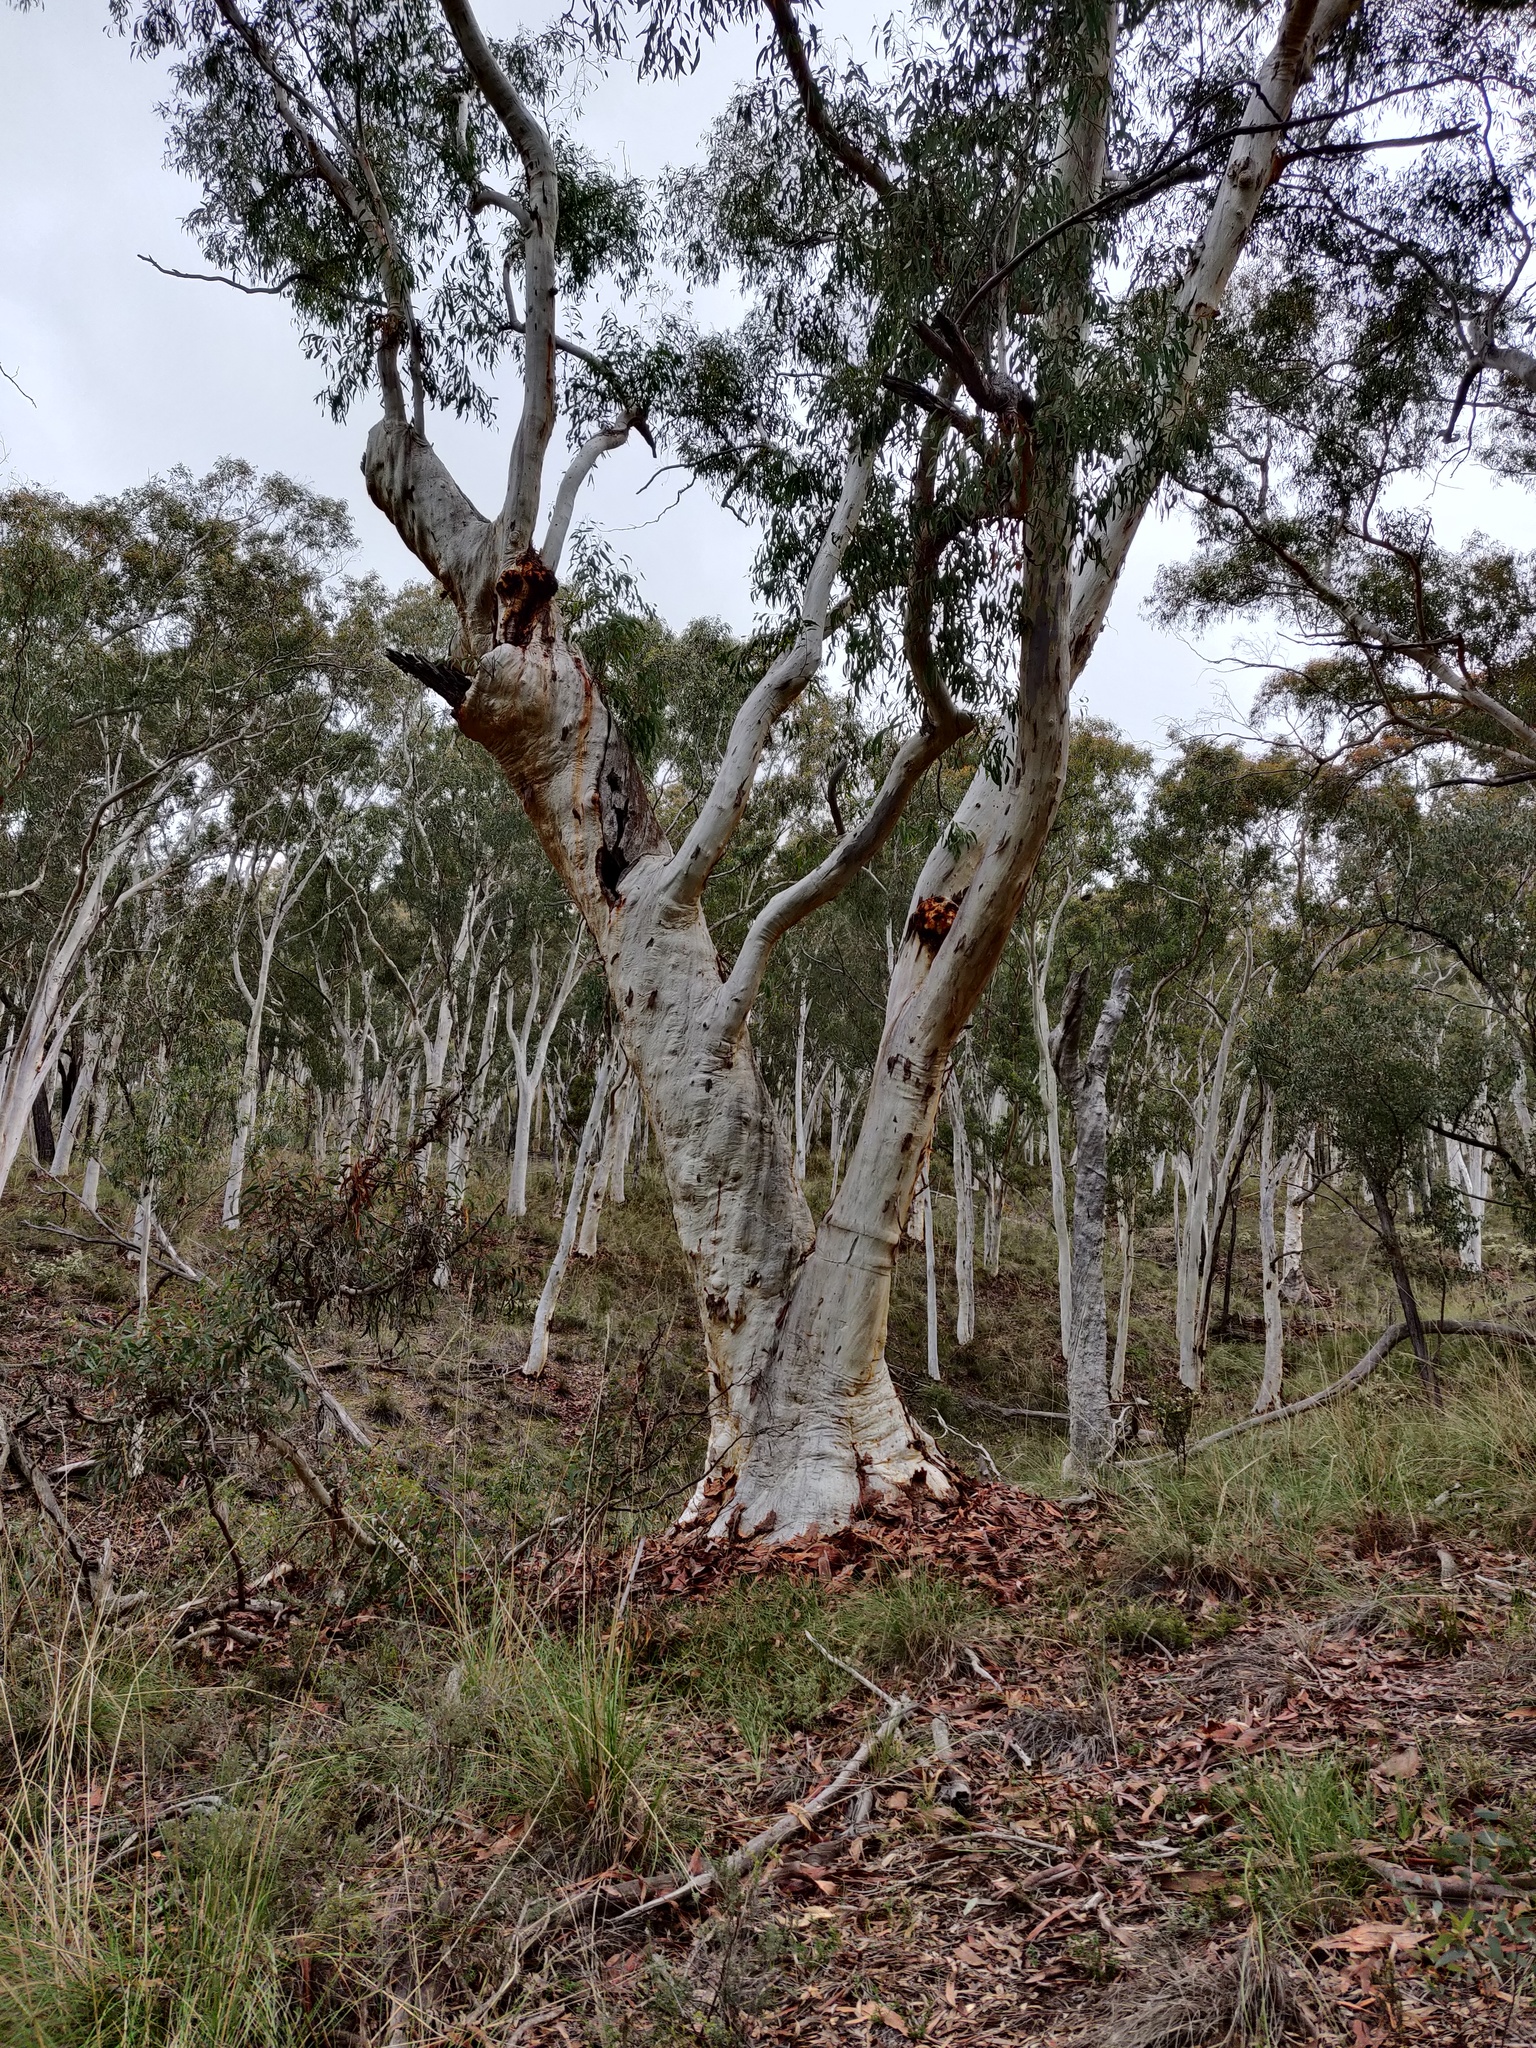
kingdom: Plantae
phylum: Tracheophyta
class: Magnoliopsida
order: Myrtales
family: Myrtaceae
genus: Eucalyptus
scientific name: Eucalyptus racemosa
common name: Scribbly gum
